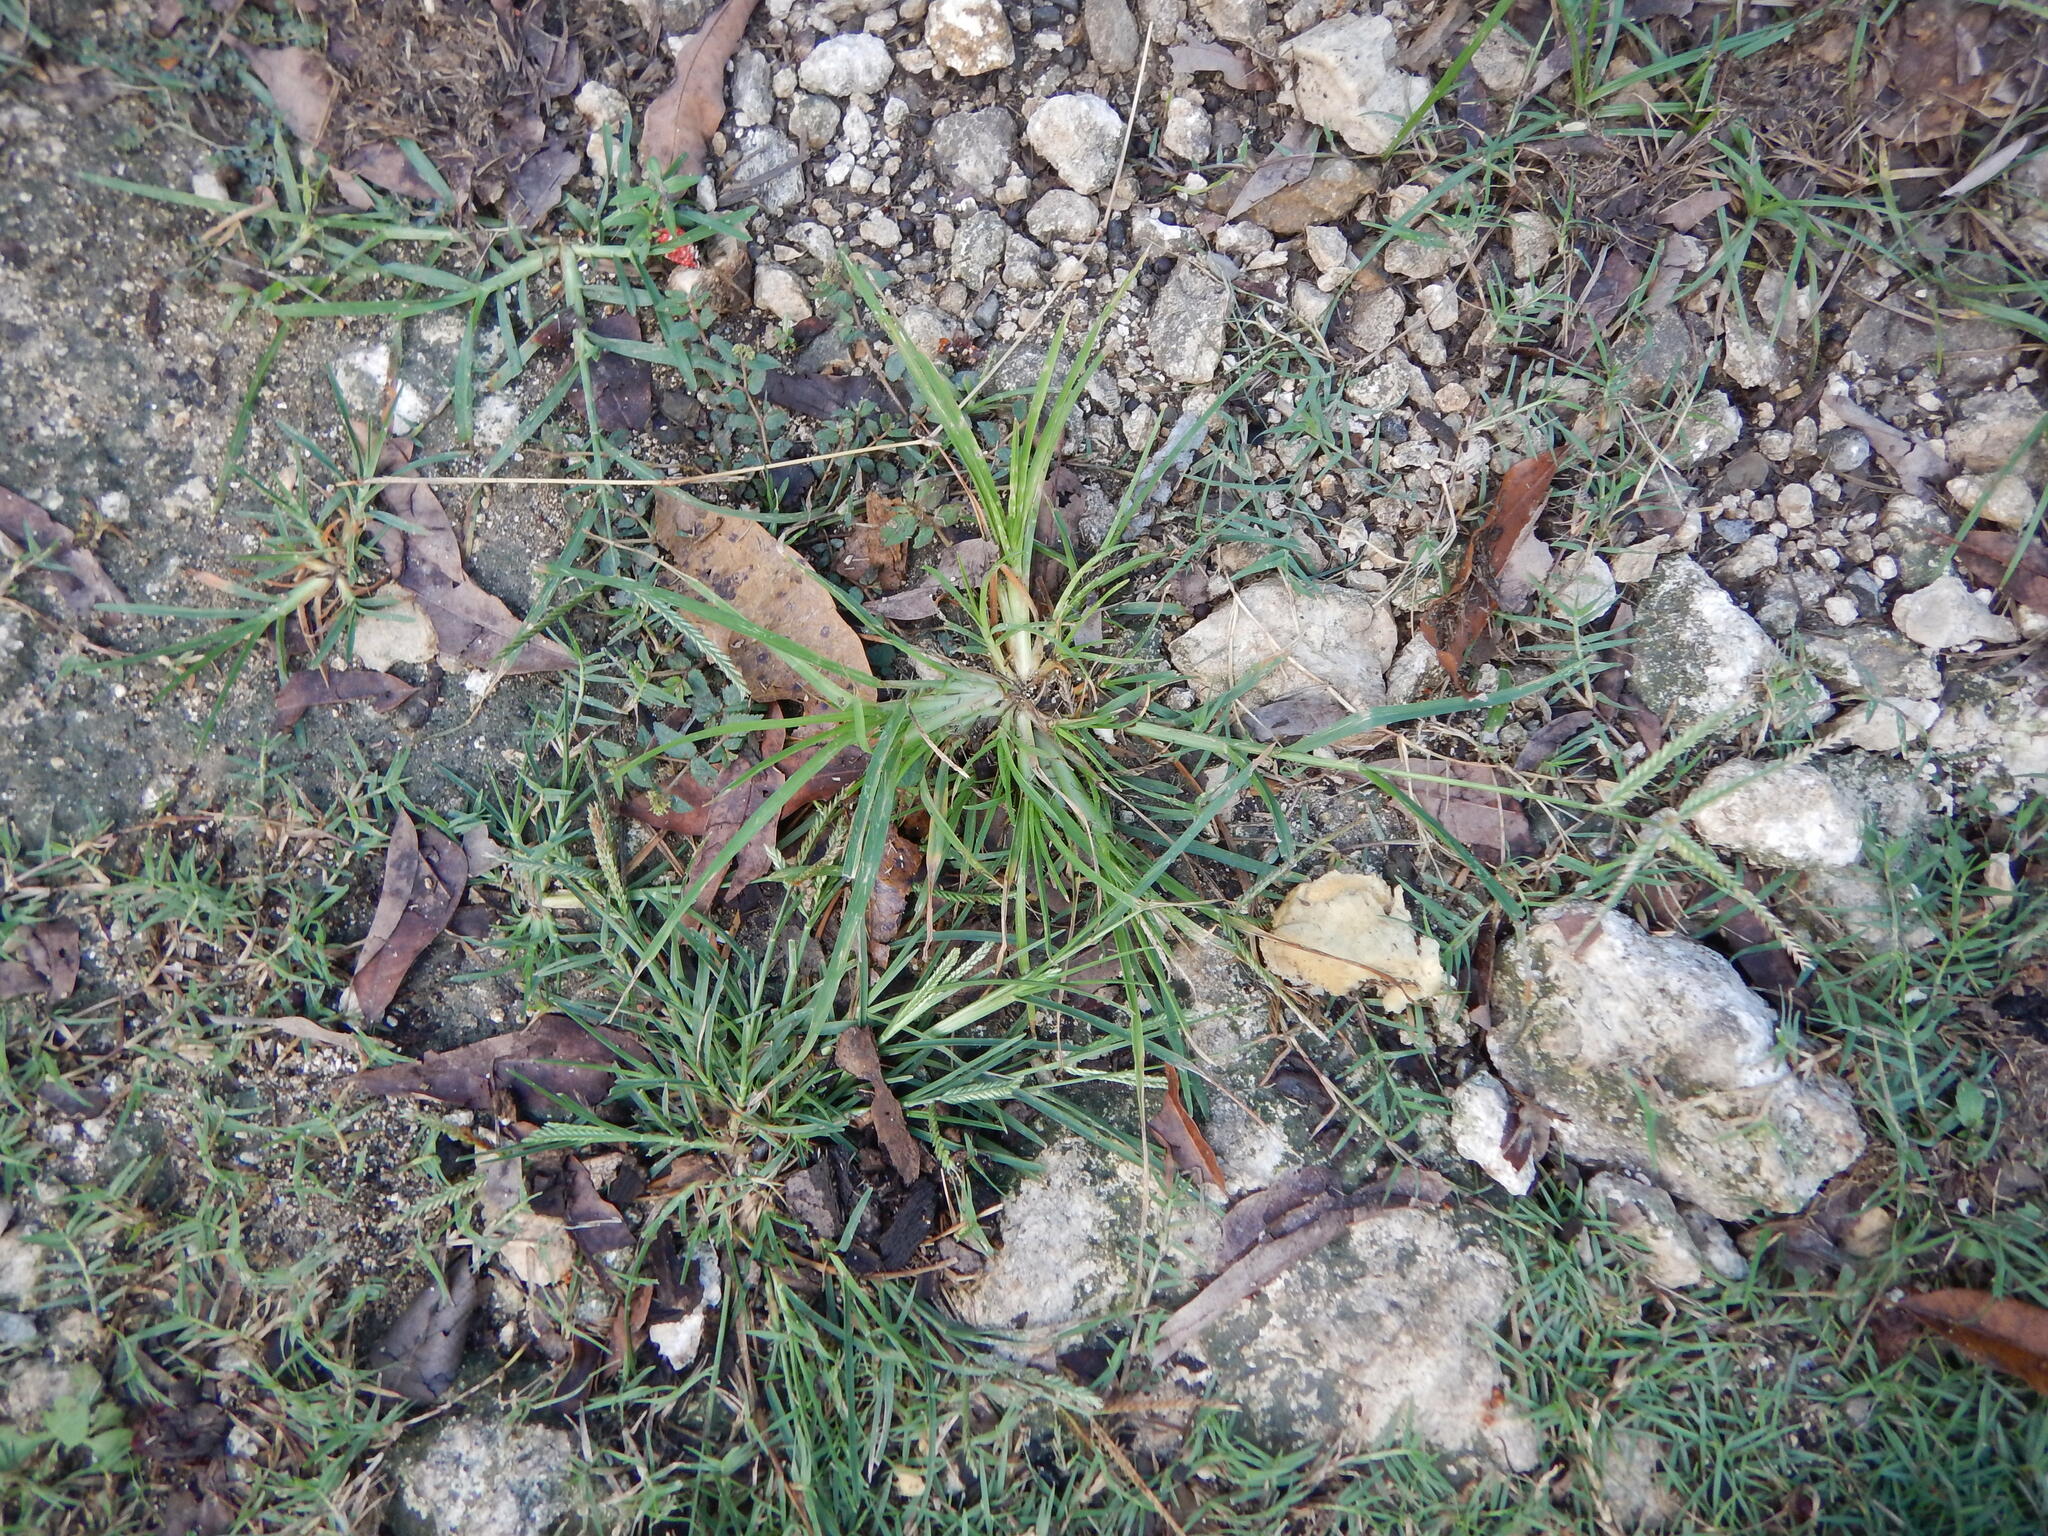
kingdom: Plantae
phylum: Tracheophyta
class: Liliopsida
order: Poales
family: Poaceae
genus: Eleusine
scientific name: Eleusine indica
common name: Yard-grass
